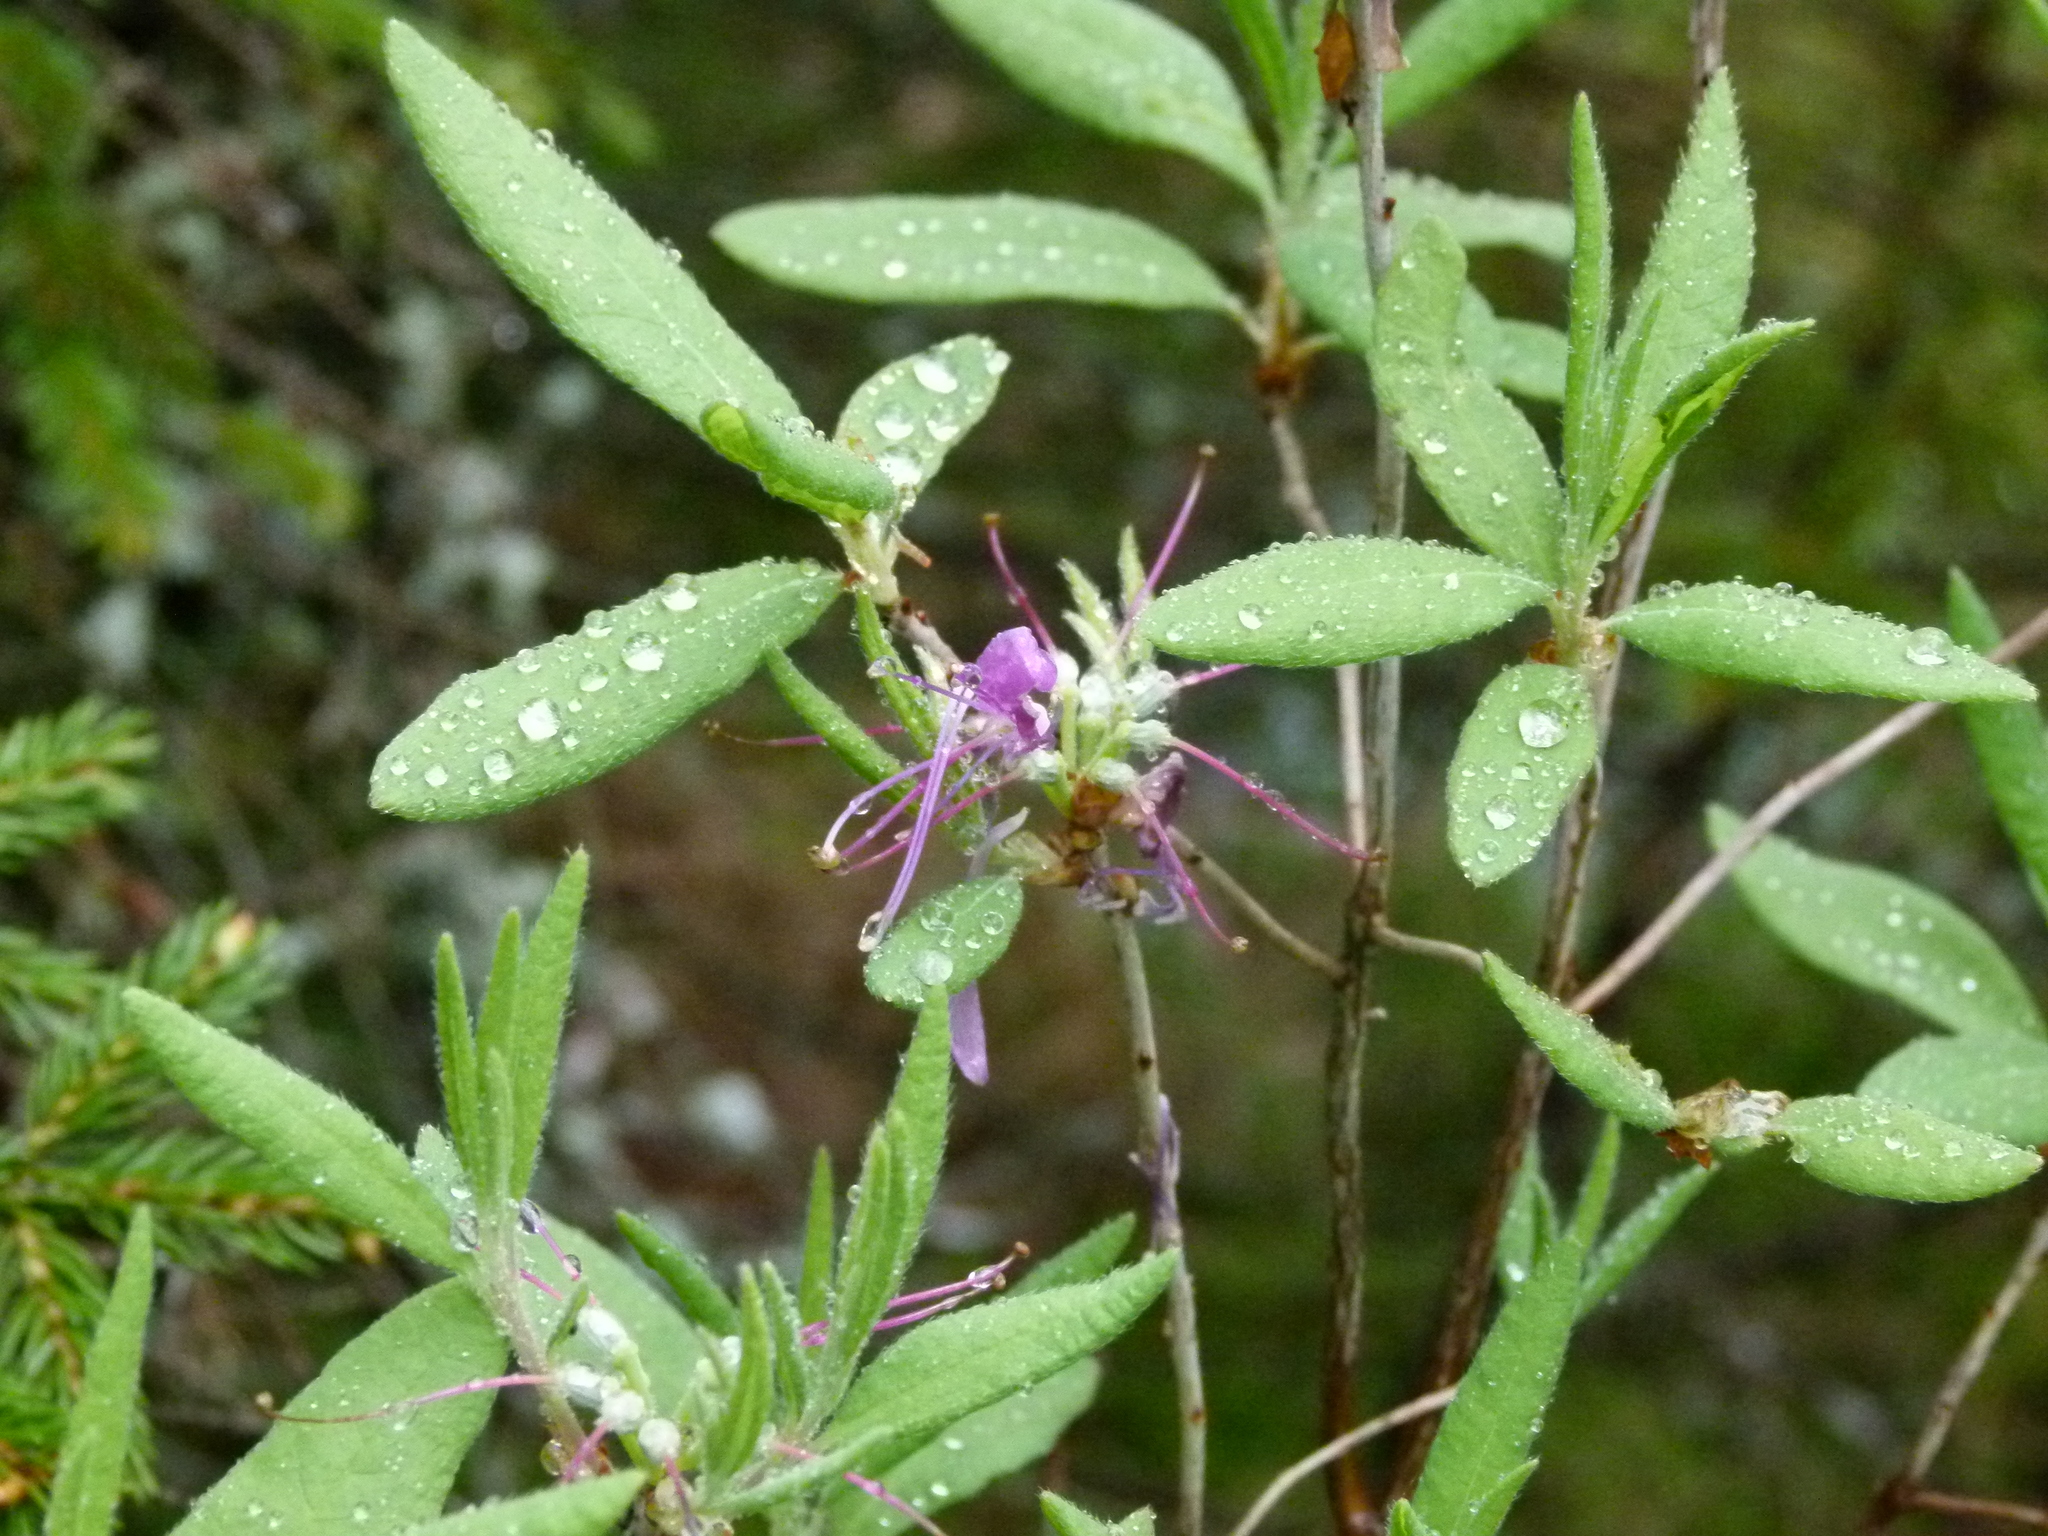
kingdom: Plantae
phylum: Tracheophyta
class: Magnoliopsida
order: Ericales
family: Ericaceae
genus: Rhododendron
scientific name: Rhododendron canadense
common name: Rhodora
